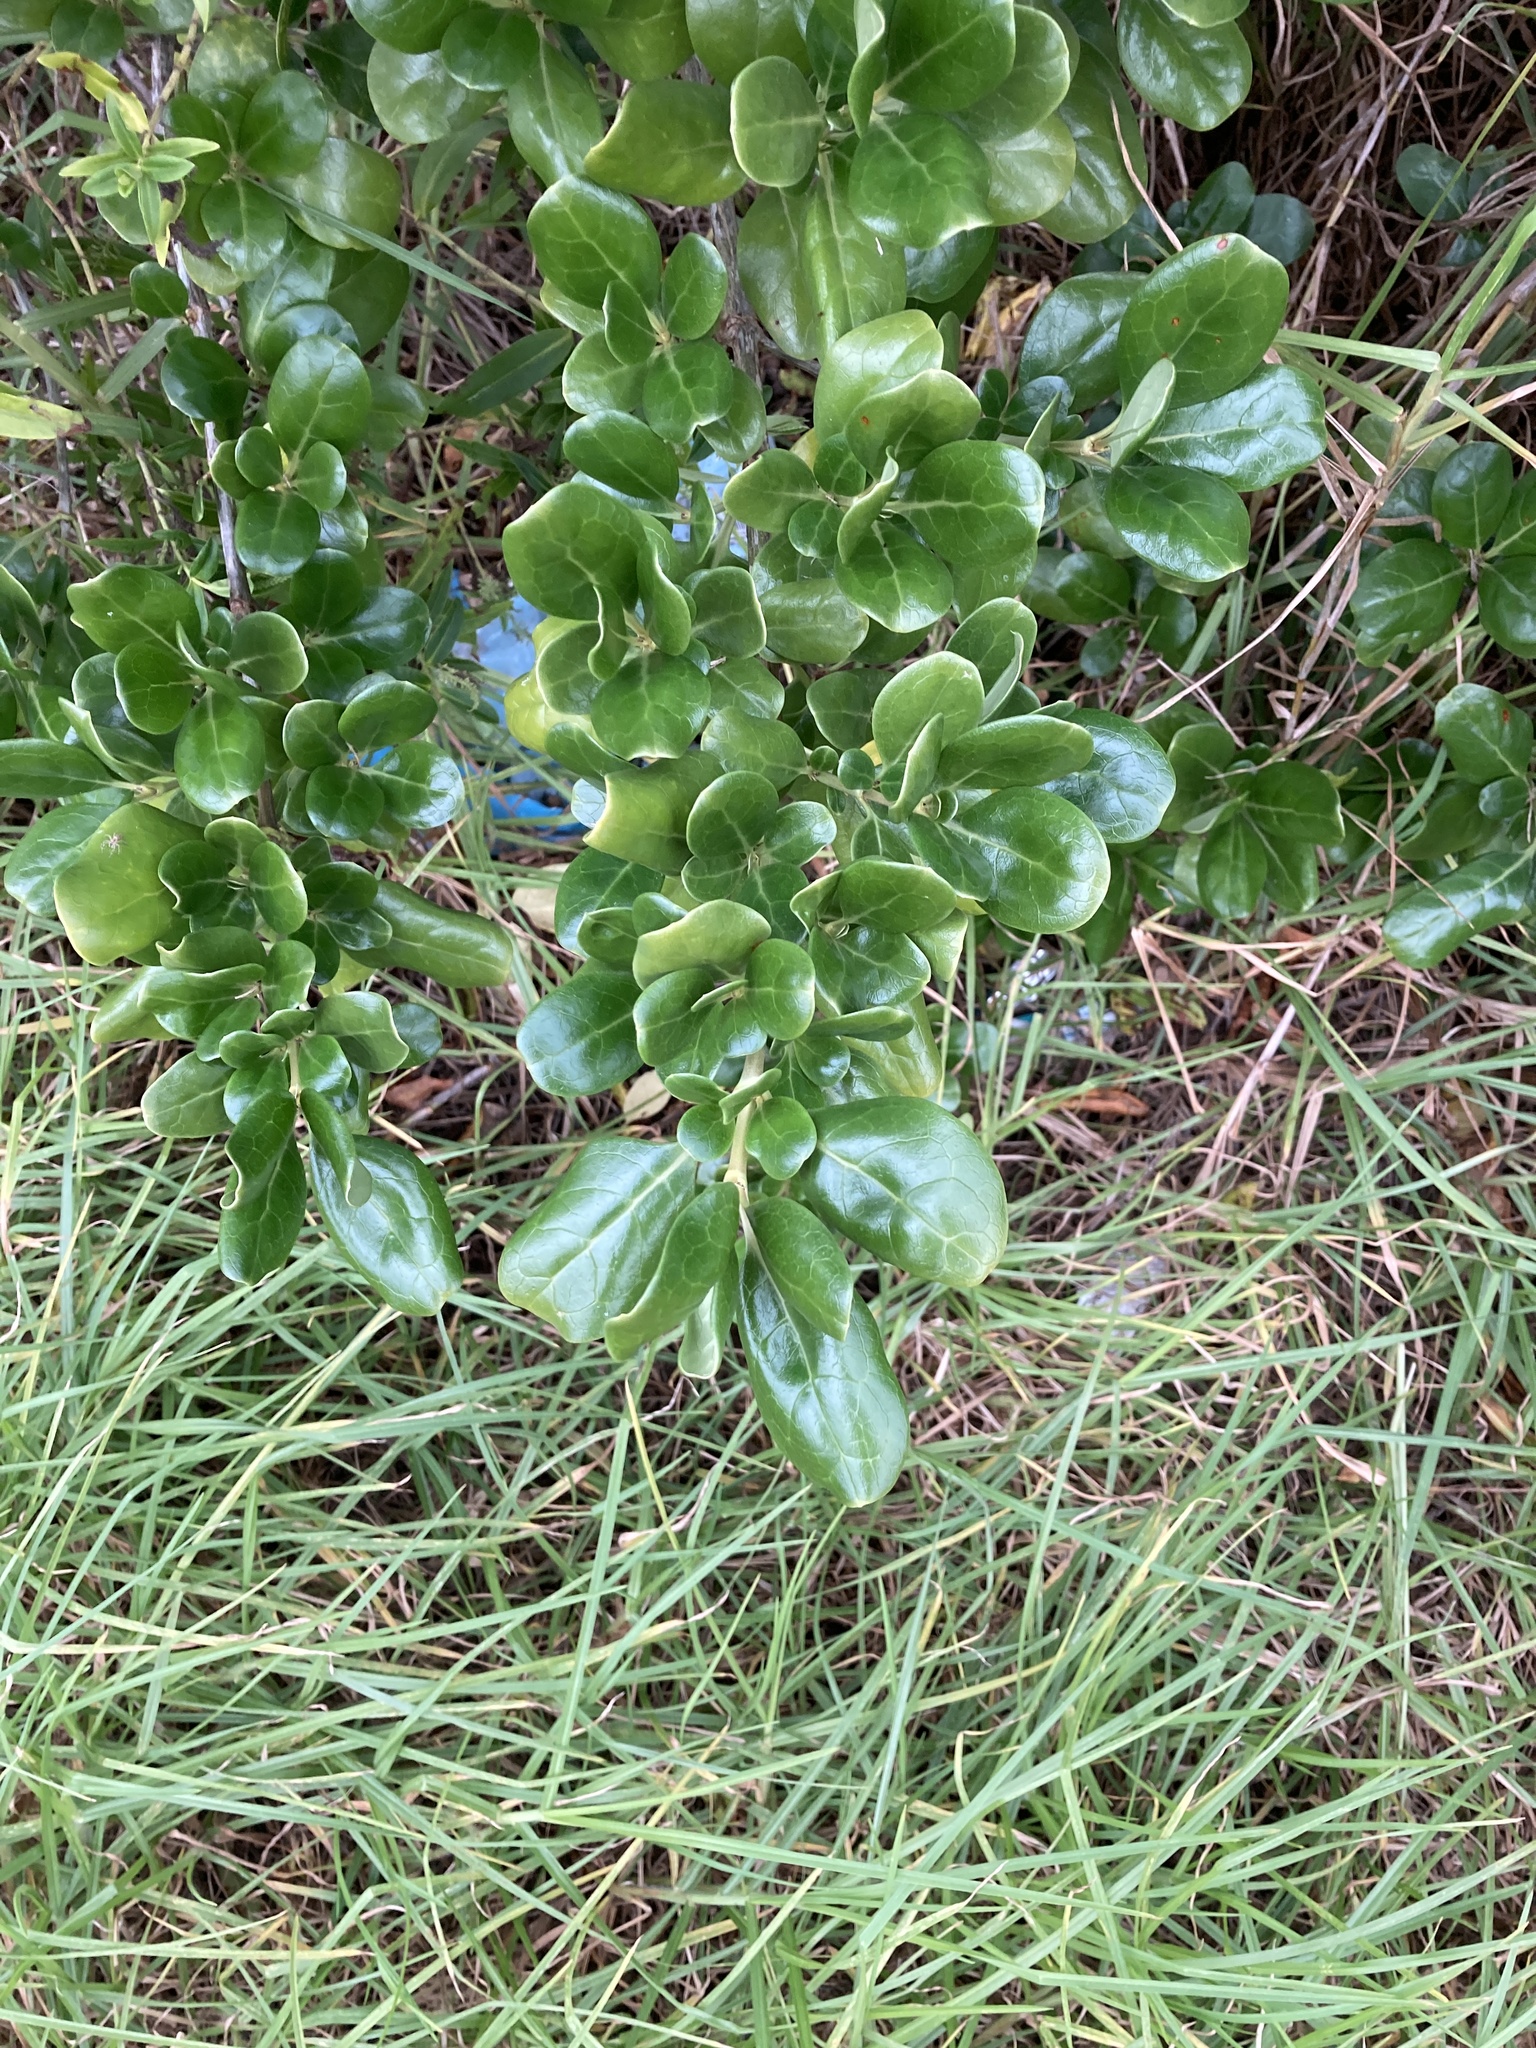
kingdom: Plantae
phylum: Tracheophyta
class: Magnoliopsida
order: Gentianales
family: Rubiaceae
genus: Coprosma
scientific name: Coprosma repens
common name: Tree bedstraw
